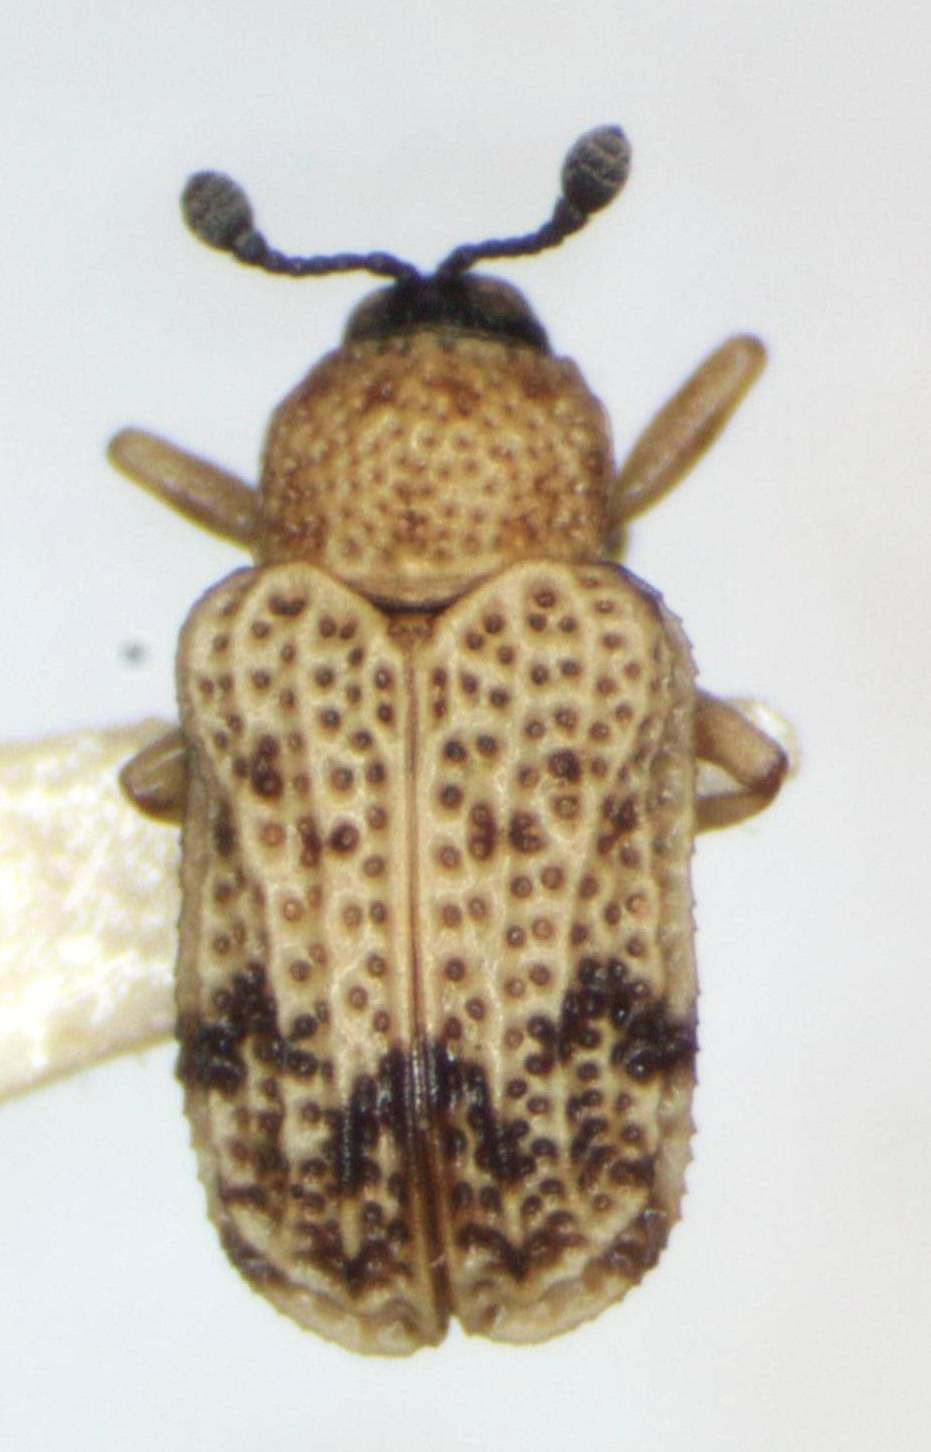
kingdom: Animalia
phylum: Arthropoda
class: Insecta
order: Coleoptera
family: Chrysomelidae
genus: Brachycoryna
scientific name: Brachycoryna pumila
